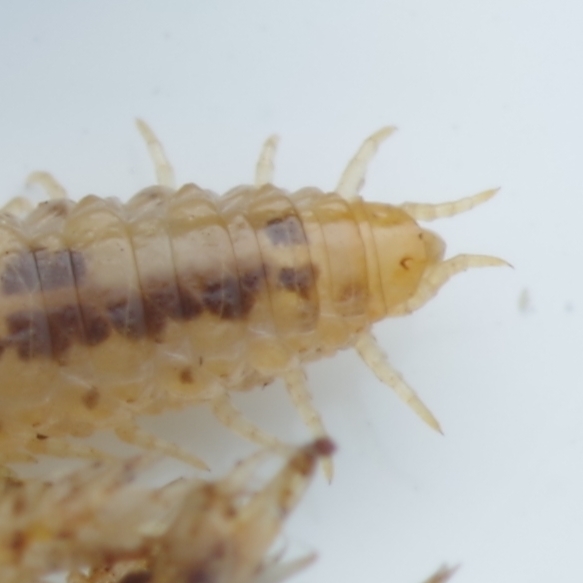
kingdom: Animalia
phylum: Arthropoda
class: Chilopoda
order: Geophilomorpha
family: Dignathodontidae
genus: Henia
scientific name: Henia vesuviana
